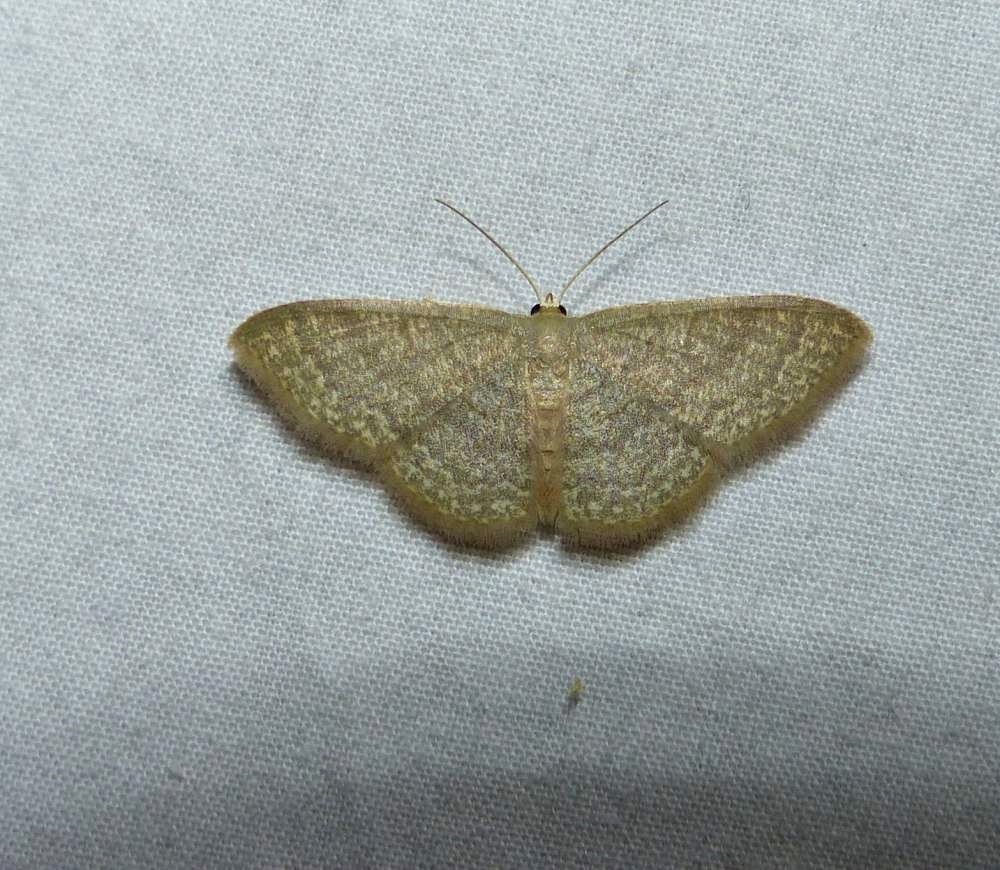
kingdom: Animalia
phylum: Arthropoda
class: Insecta
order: Lepidoptera
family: Geometridae
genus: Pleuroprucha
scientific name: Pleuroprucha insulsaria
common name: Common tan wave
